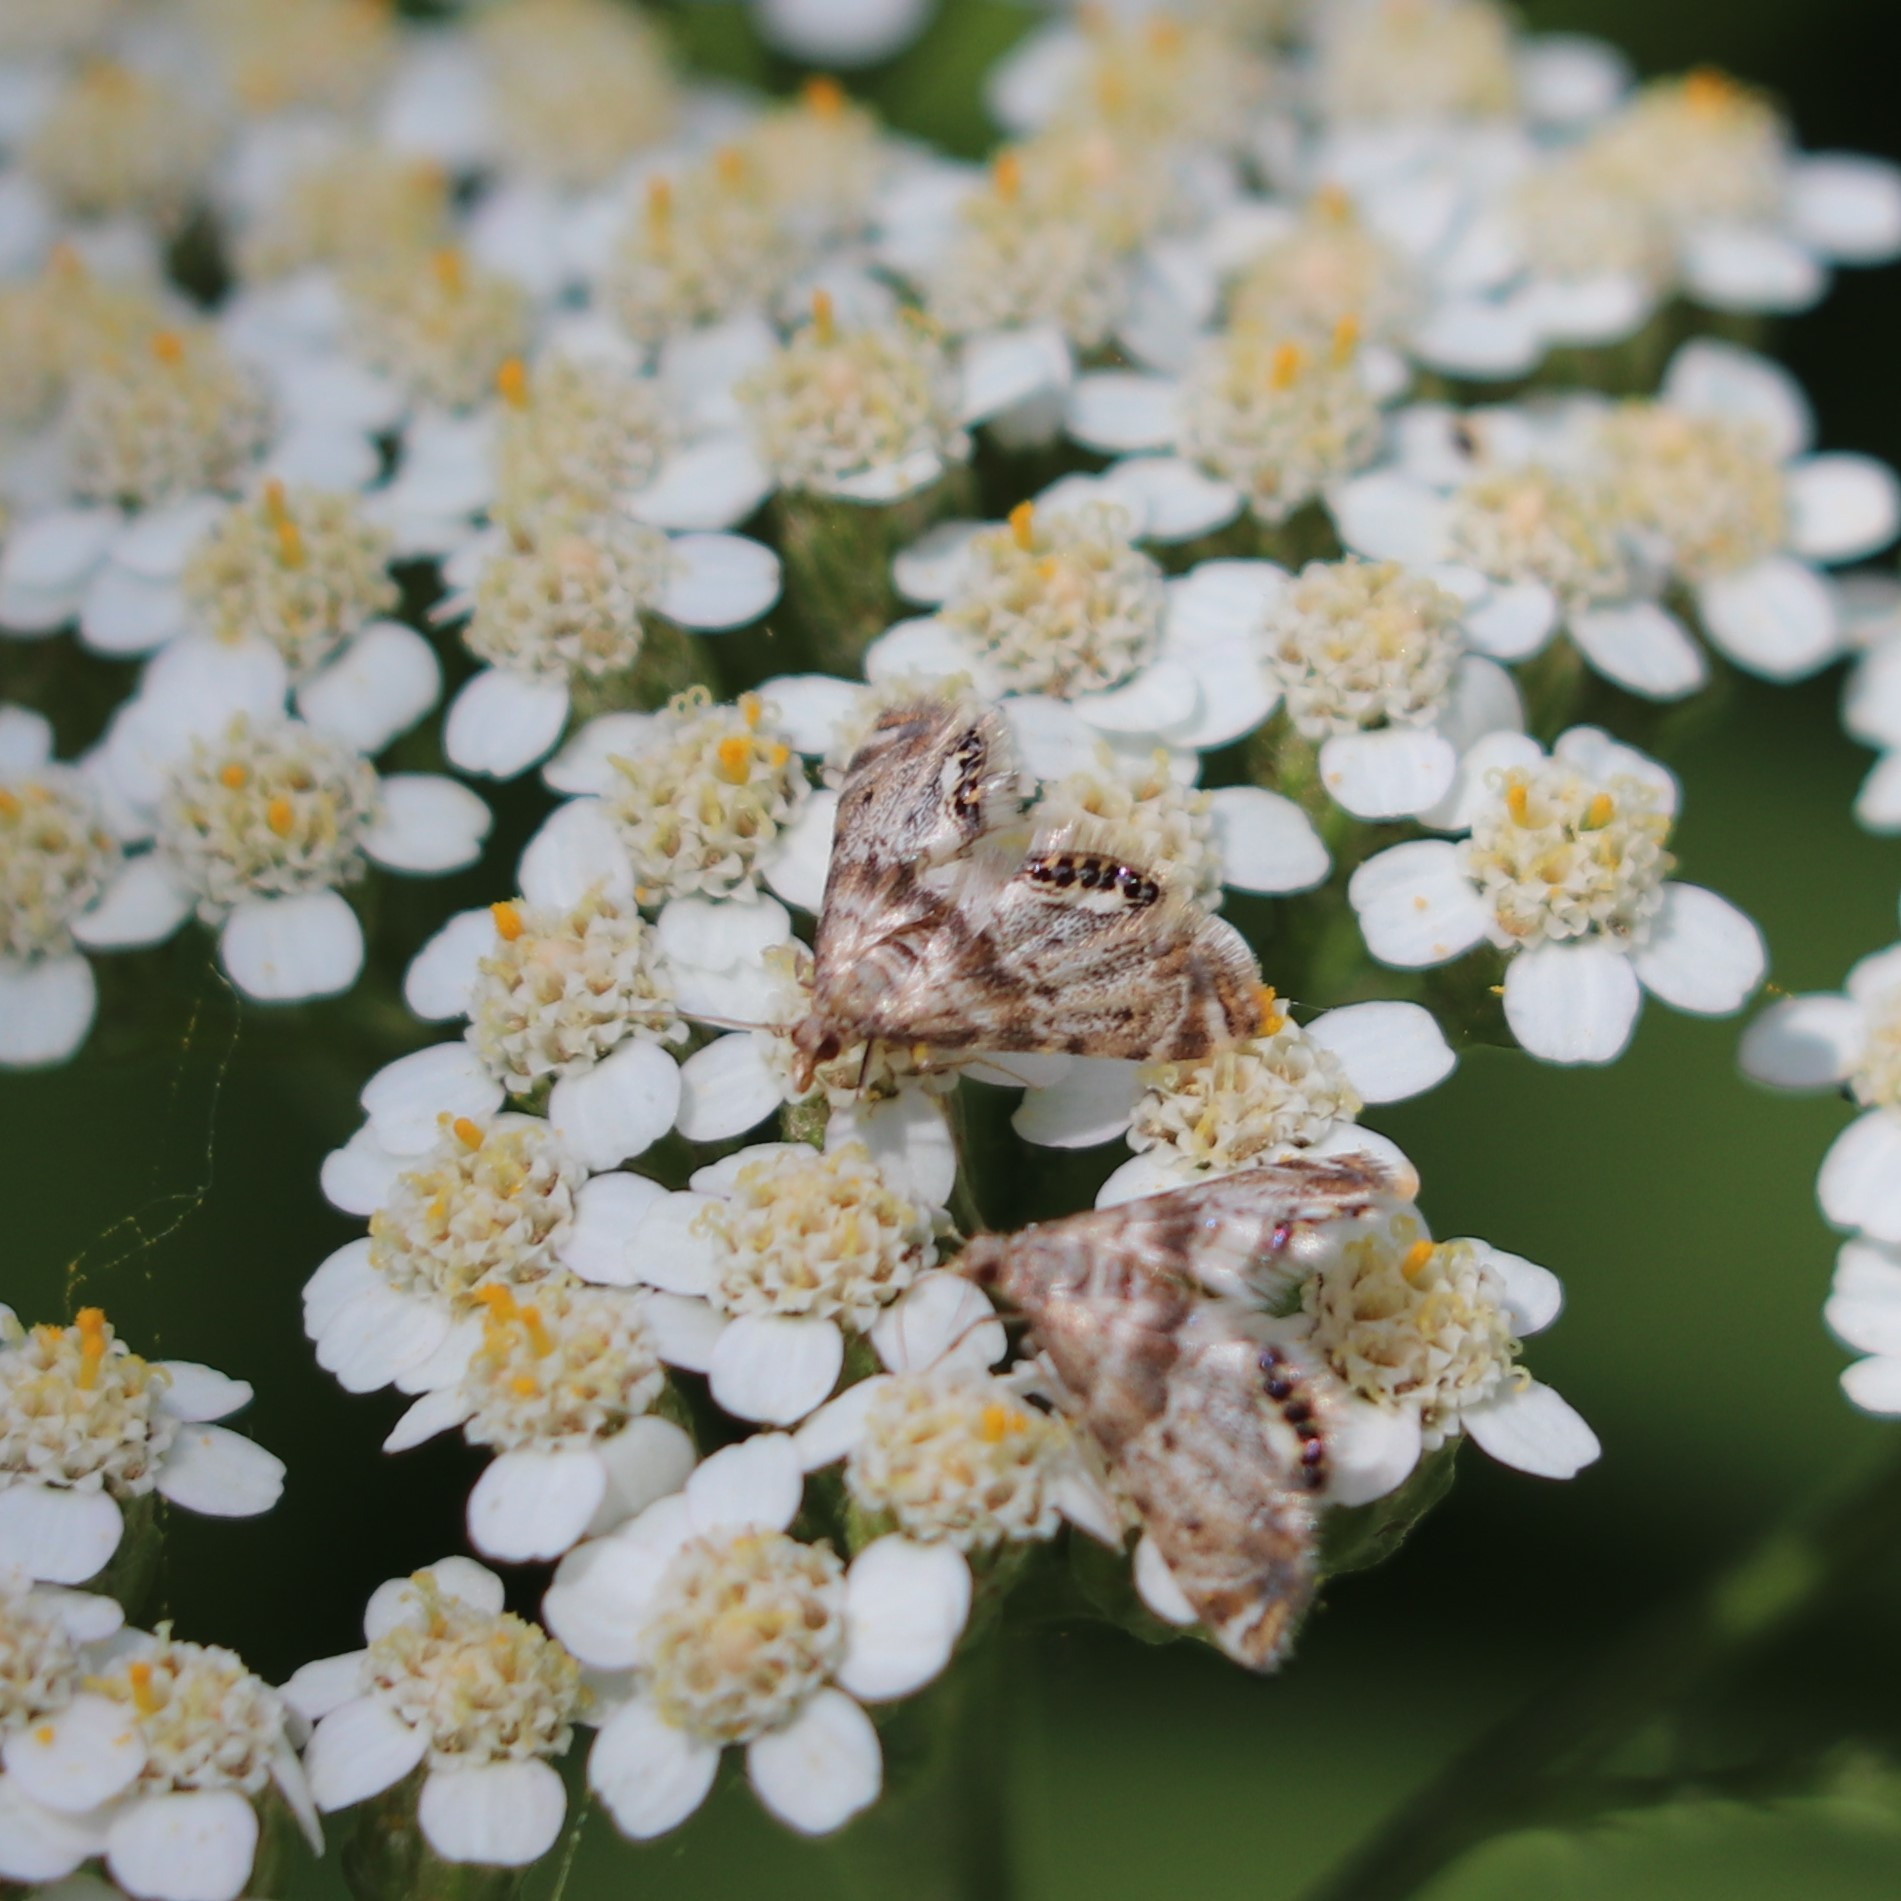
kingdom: Animalia
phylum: Arthropoda
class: Insecta
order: Lepidoptera
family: Crambidae
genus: Petrophila
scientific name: Petrophila fulicalis
